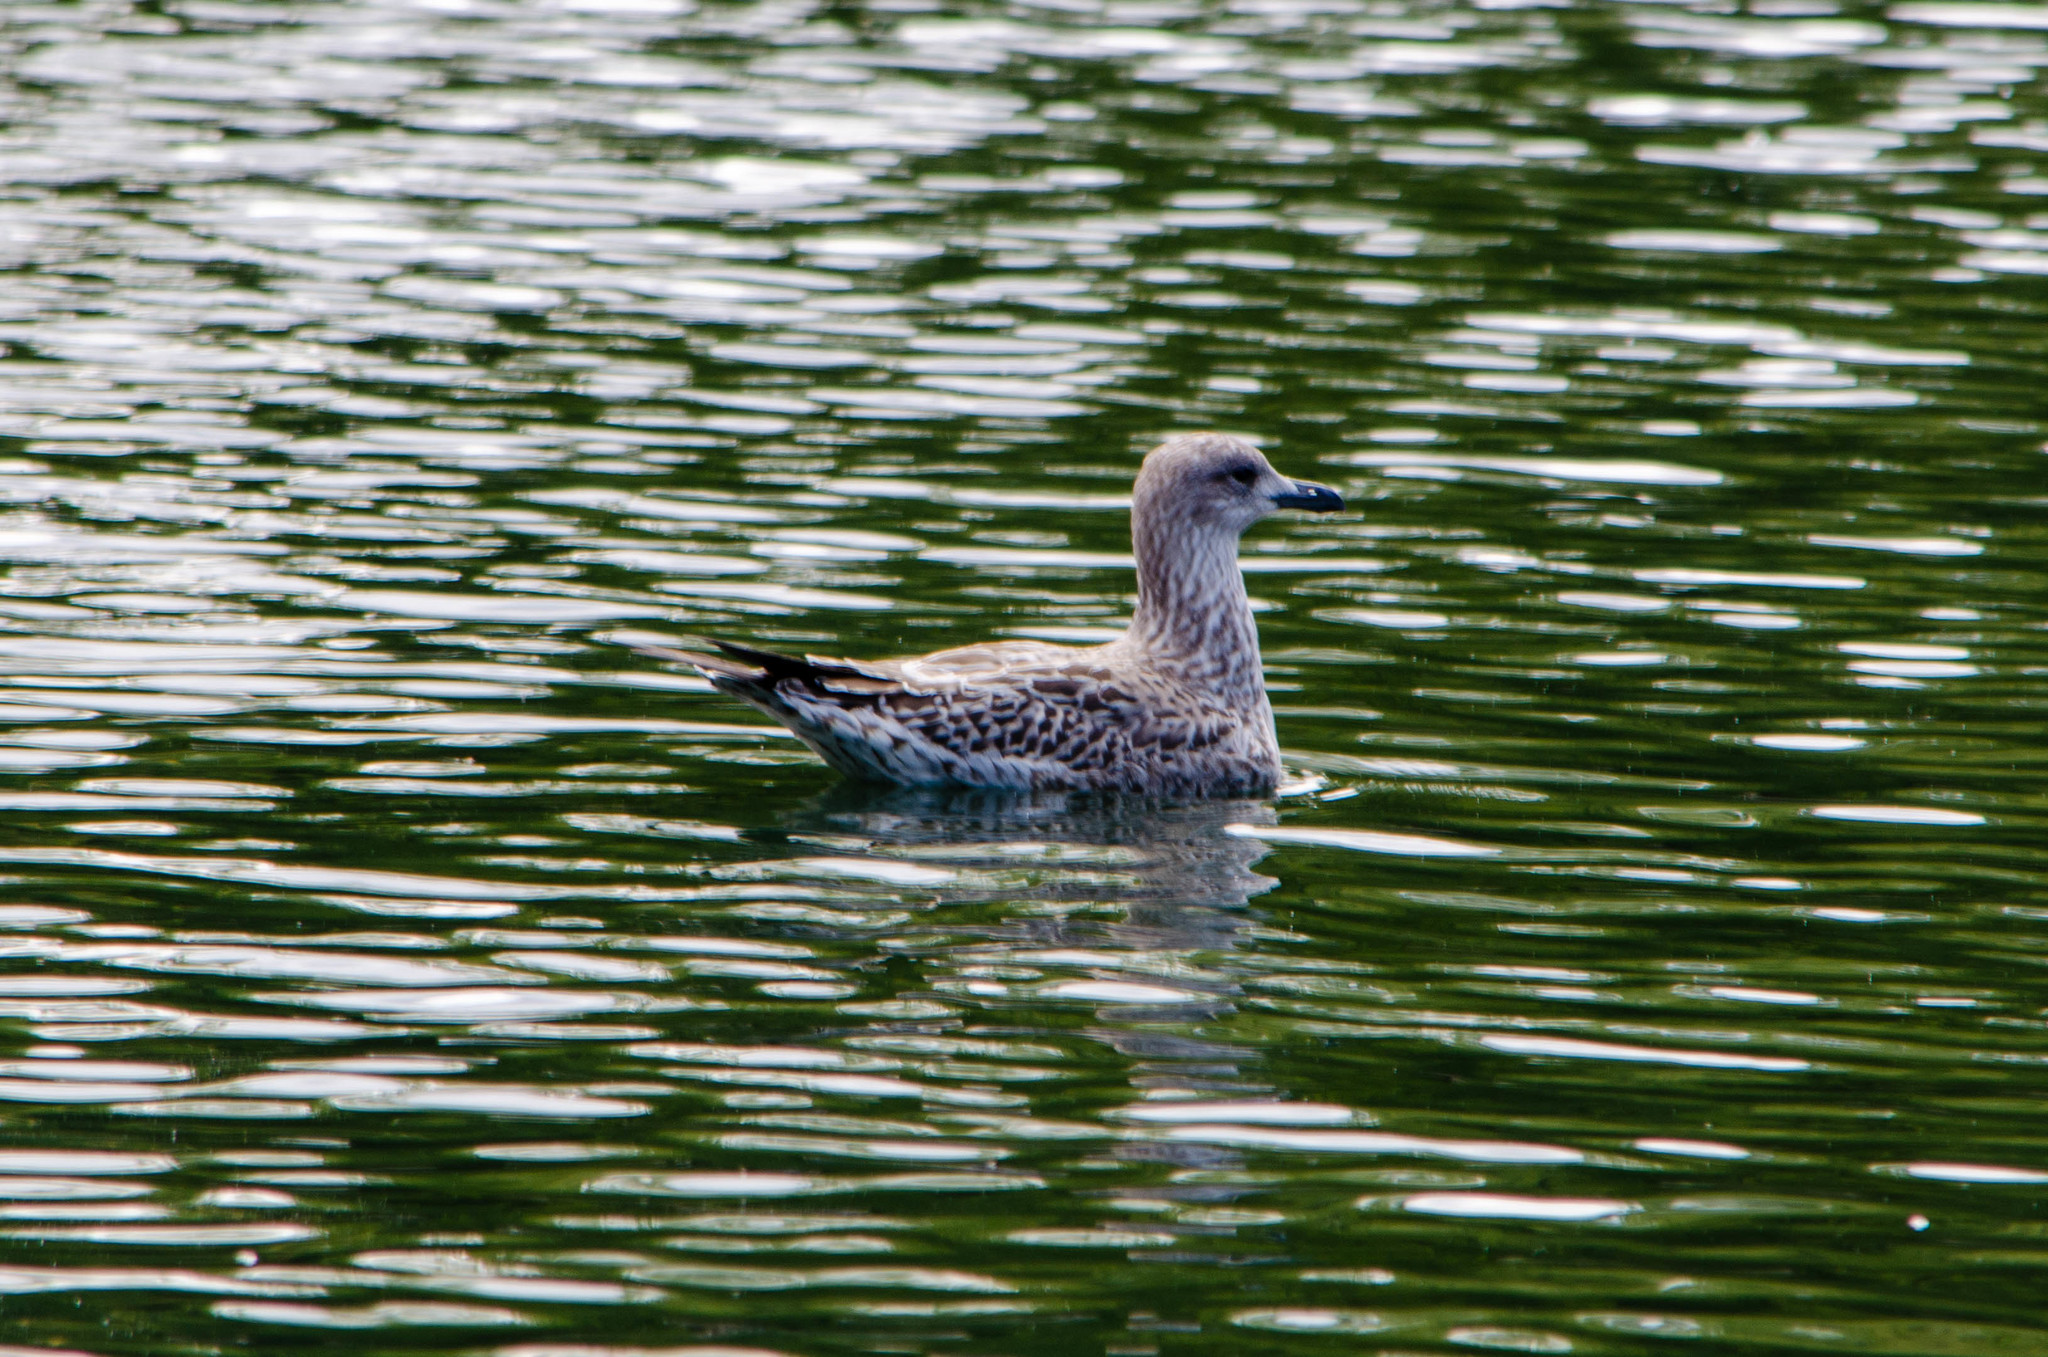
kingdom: Animalia
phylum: Chordata
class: Aves
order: Charadriiformes
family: Laridae
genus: Larus
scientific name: Larus argentatus
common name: Herring gull
